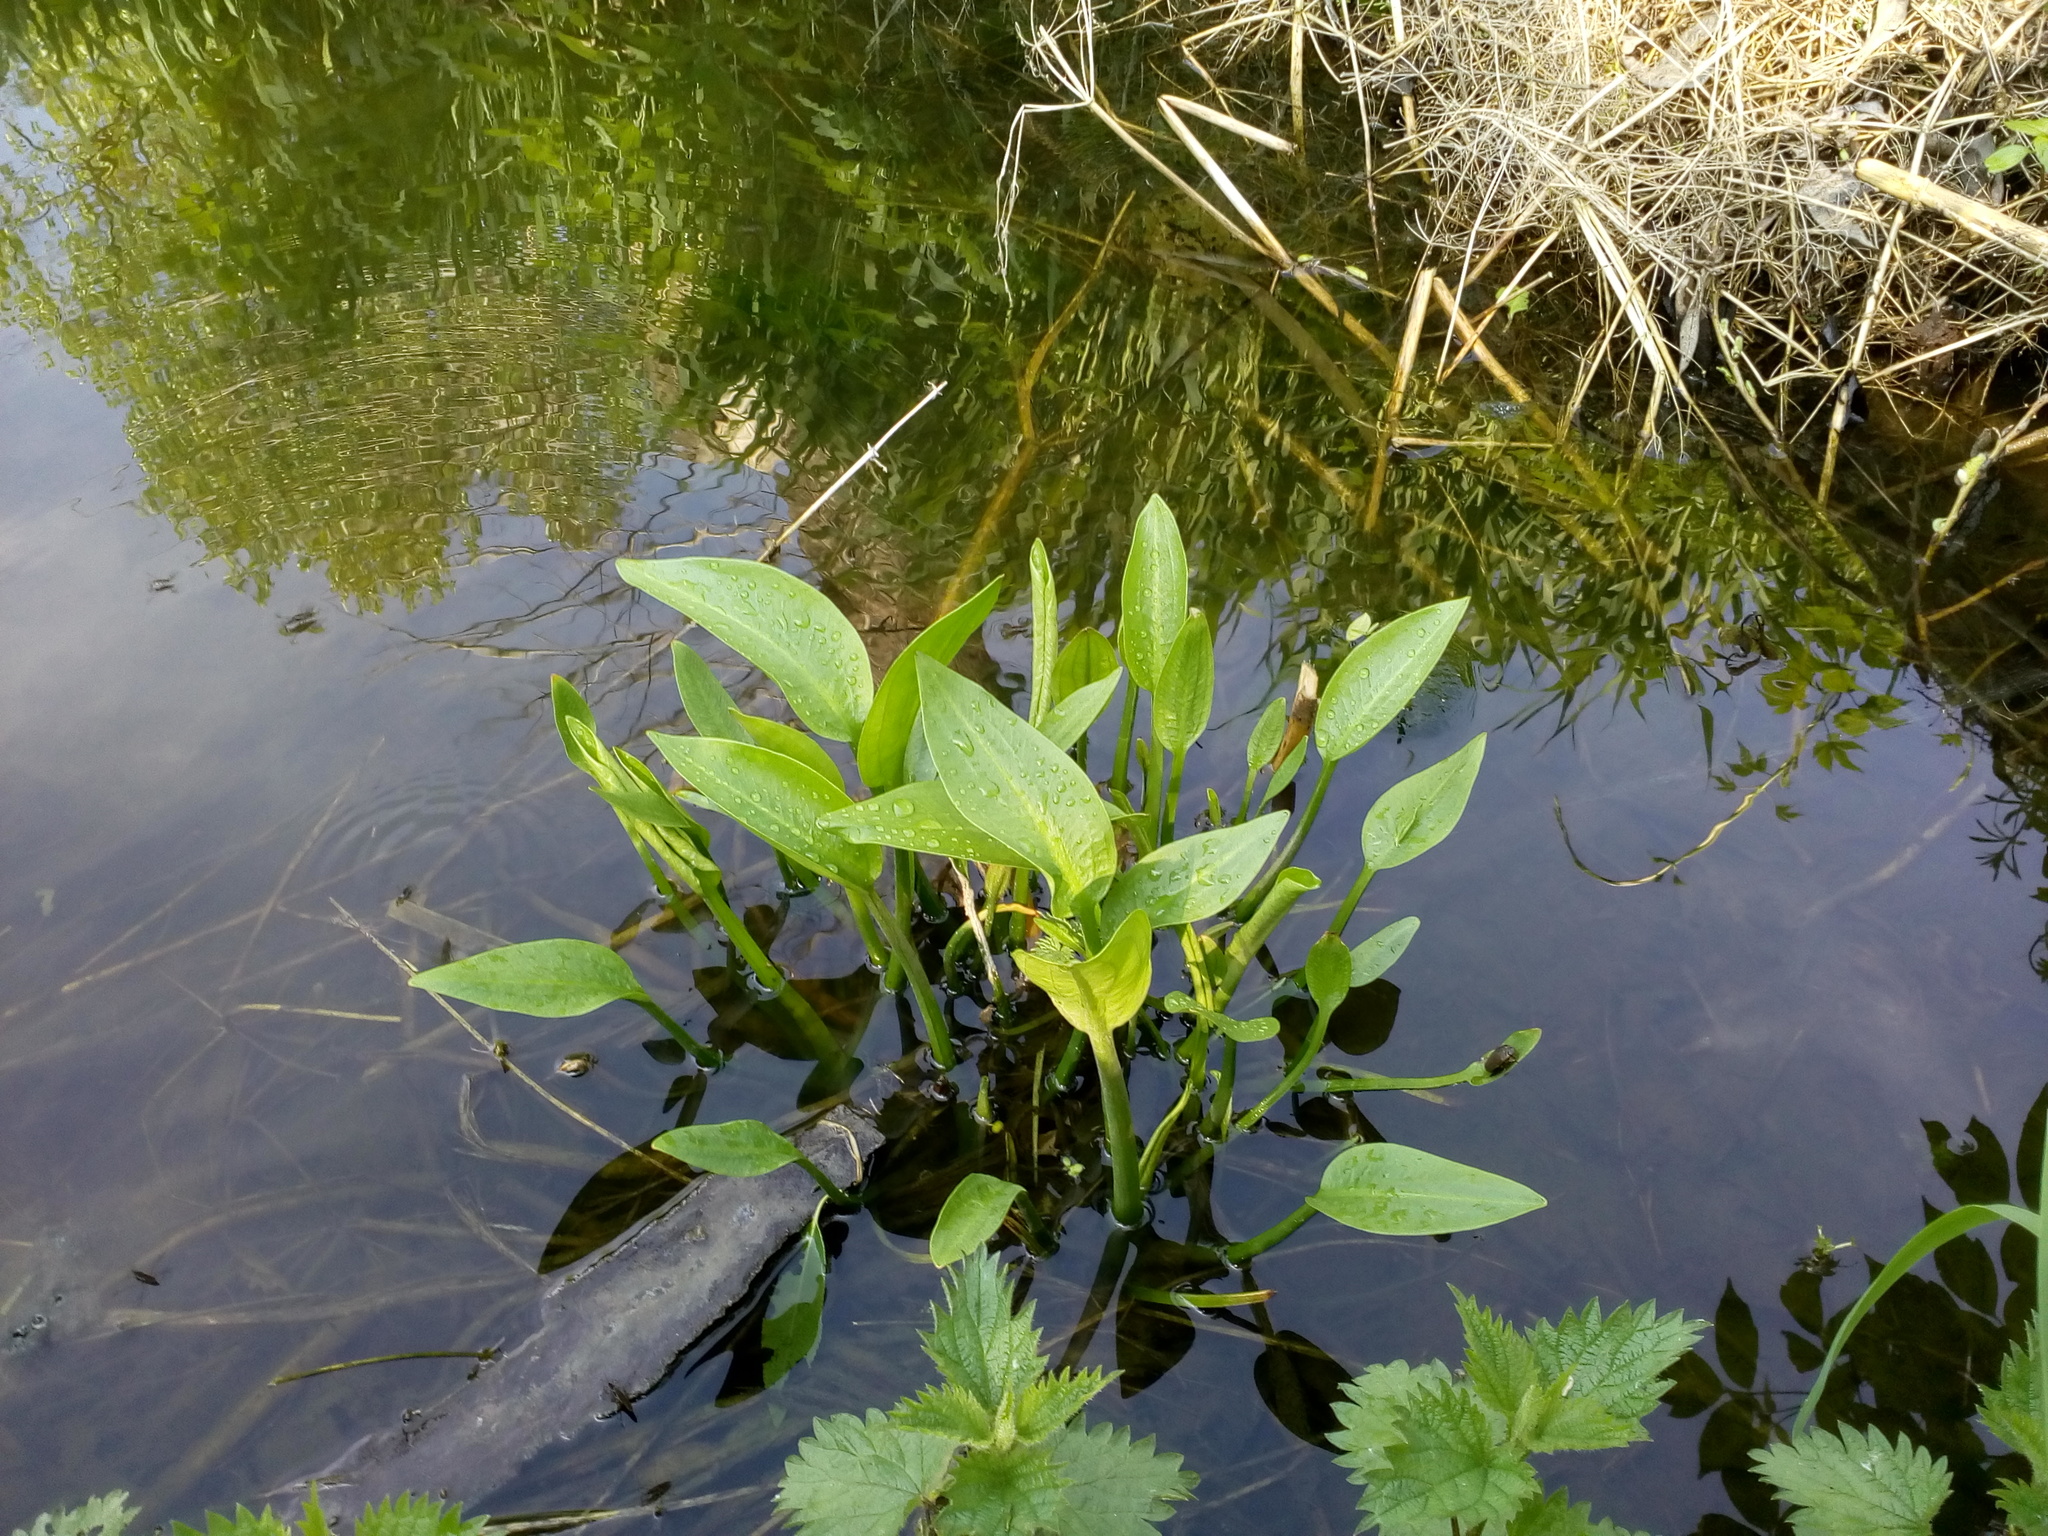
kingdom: Plantae
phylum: Tracheophyta
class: Liliopsida
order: Alismatales
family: Alismataceae
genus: Alisma
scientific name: Alisma plantago-aquatica
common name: Water-plantain
